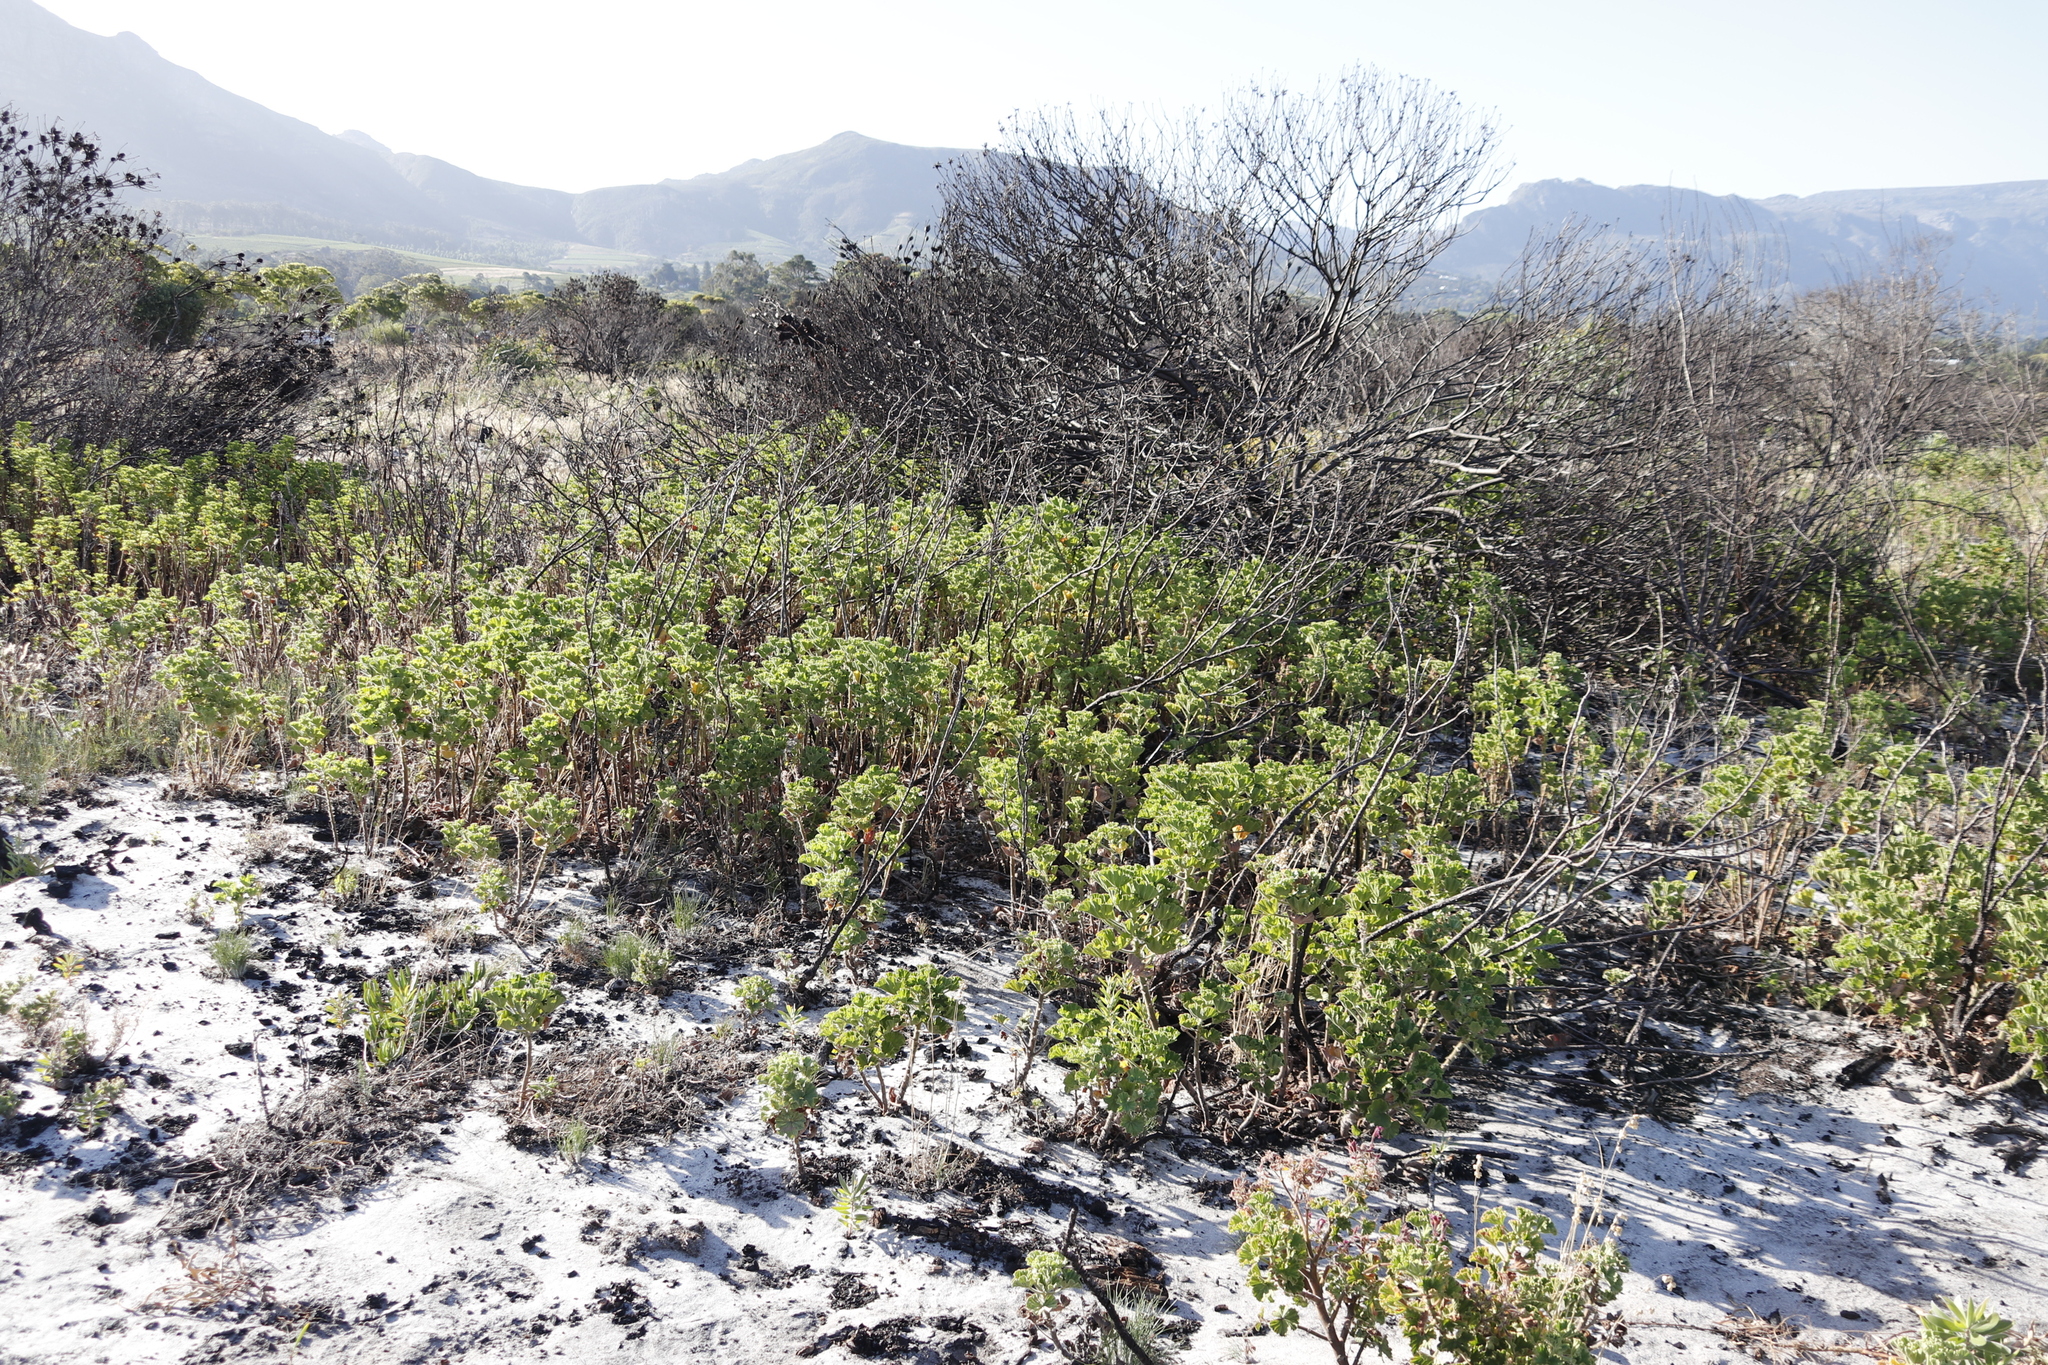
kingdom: Plantae
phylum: Tracheophyta
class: Magnoliopsida
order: Geraniales
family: Geraniaceae
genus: Pelargonium
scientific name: Pelargonium cucullatum
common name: Tree pelargonium
